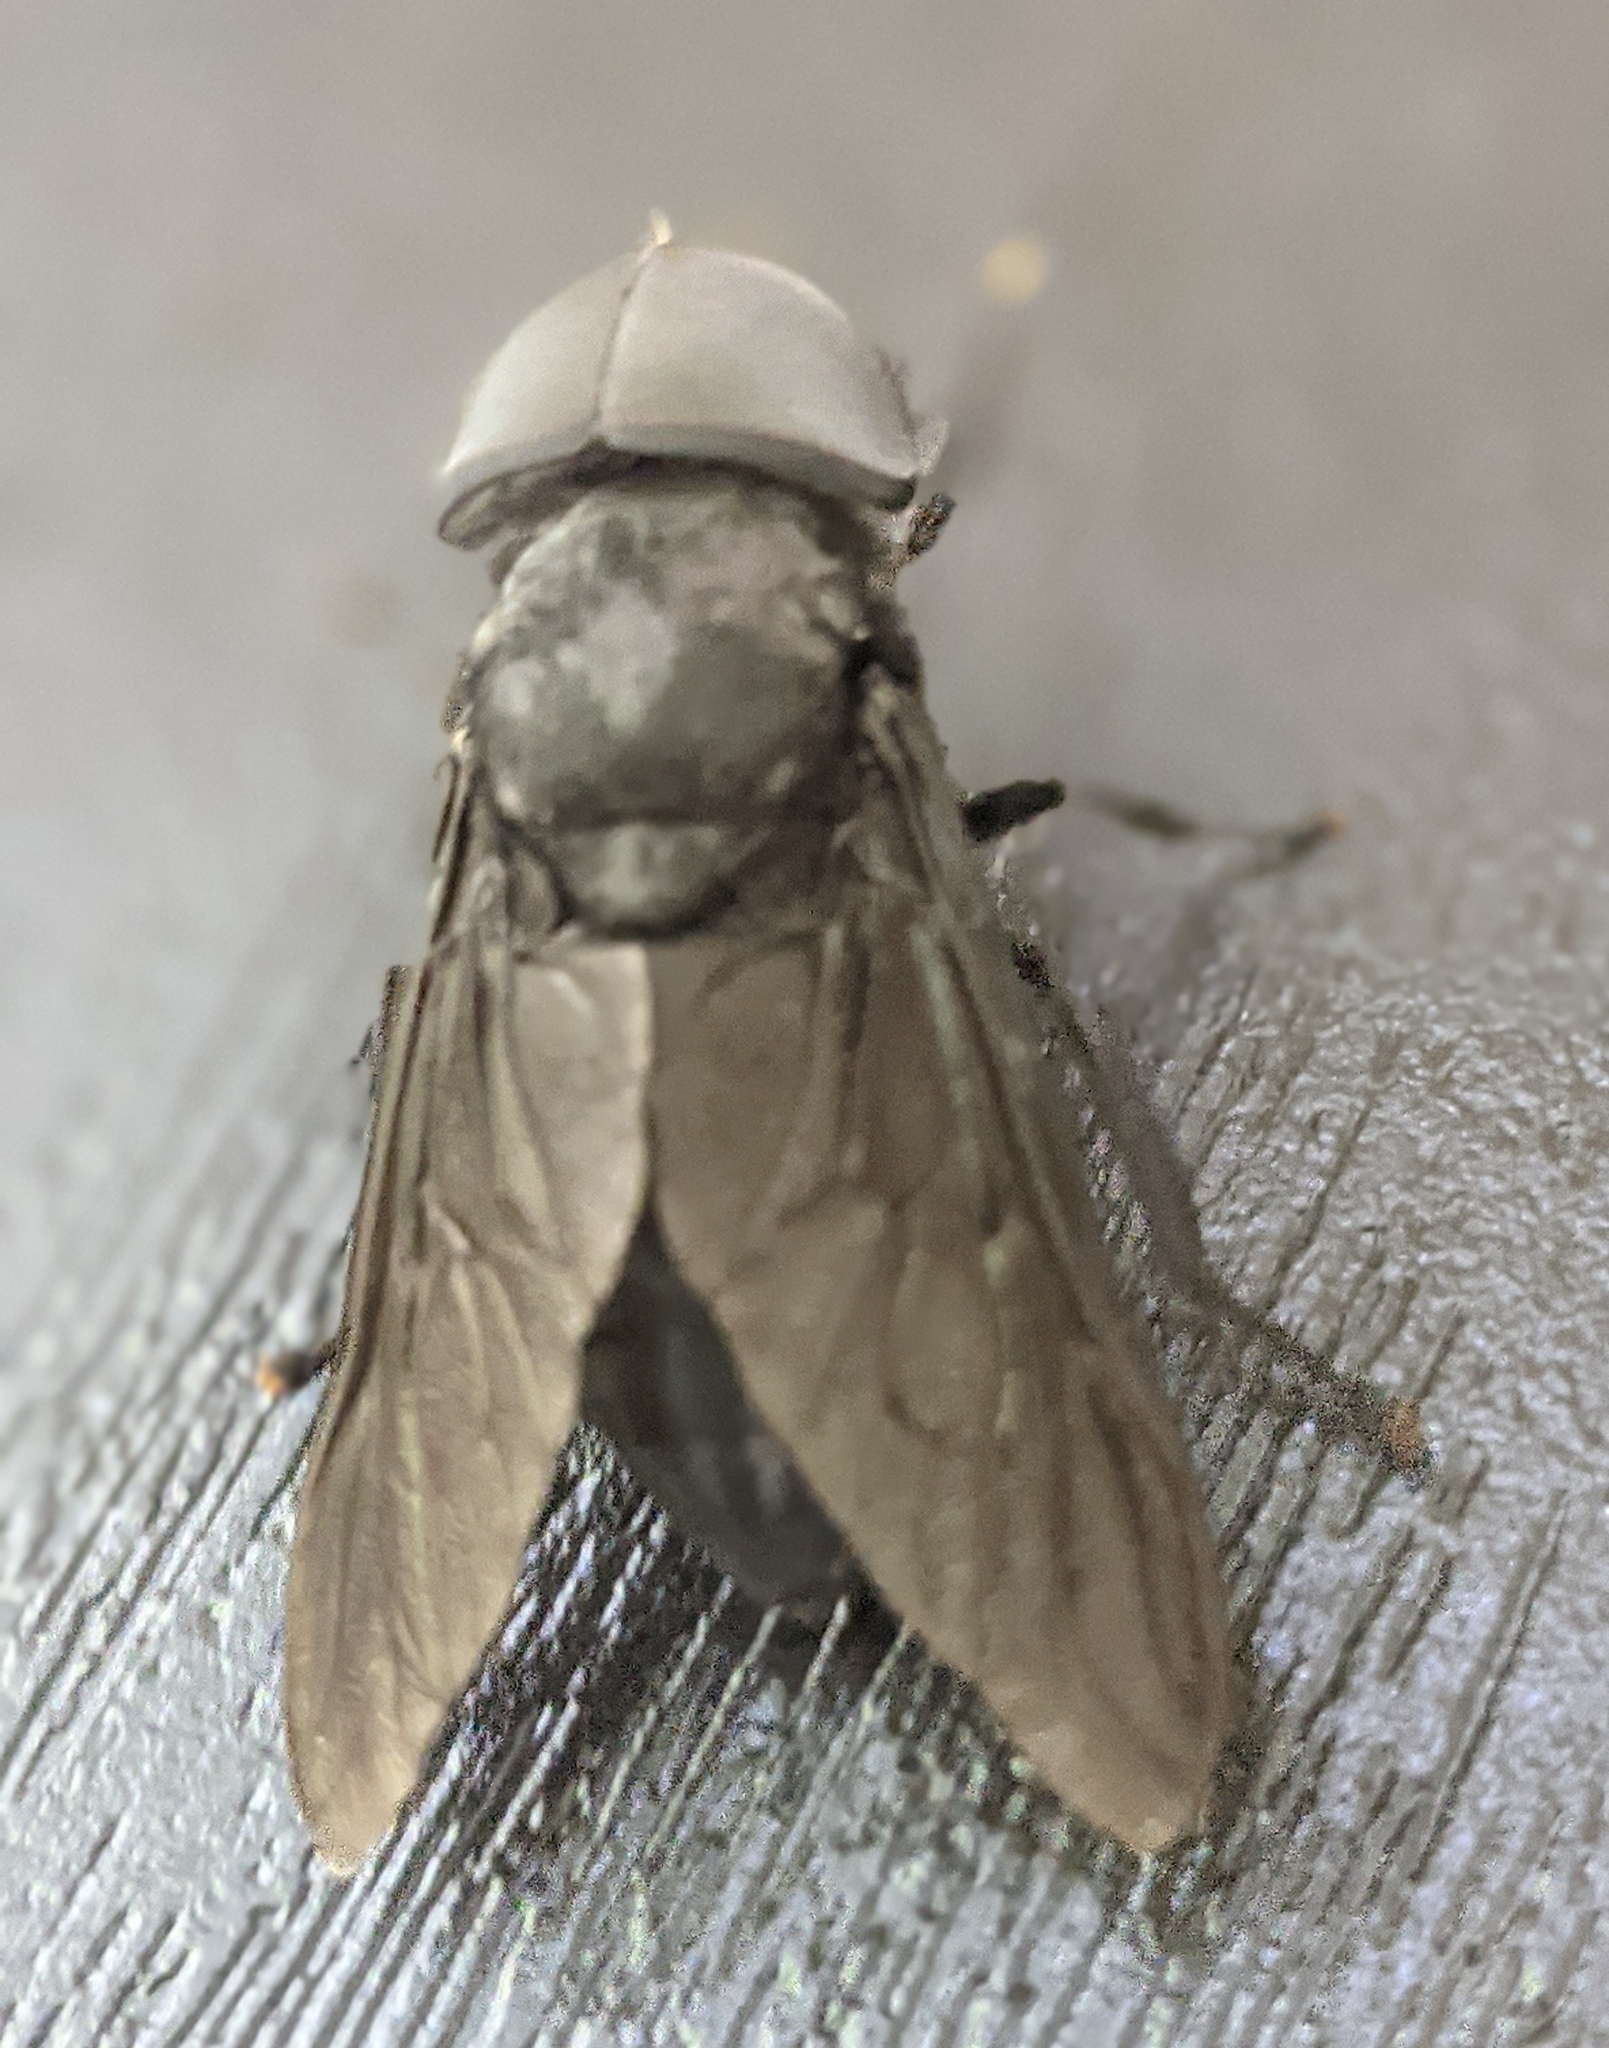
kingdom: Animalia
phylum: Arthropoda
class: Insecta
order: Diptera
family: Tabanidae
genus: Tabanus
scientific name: Tabanus atratus
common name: Black horse fly
